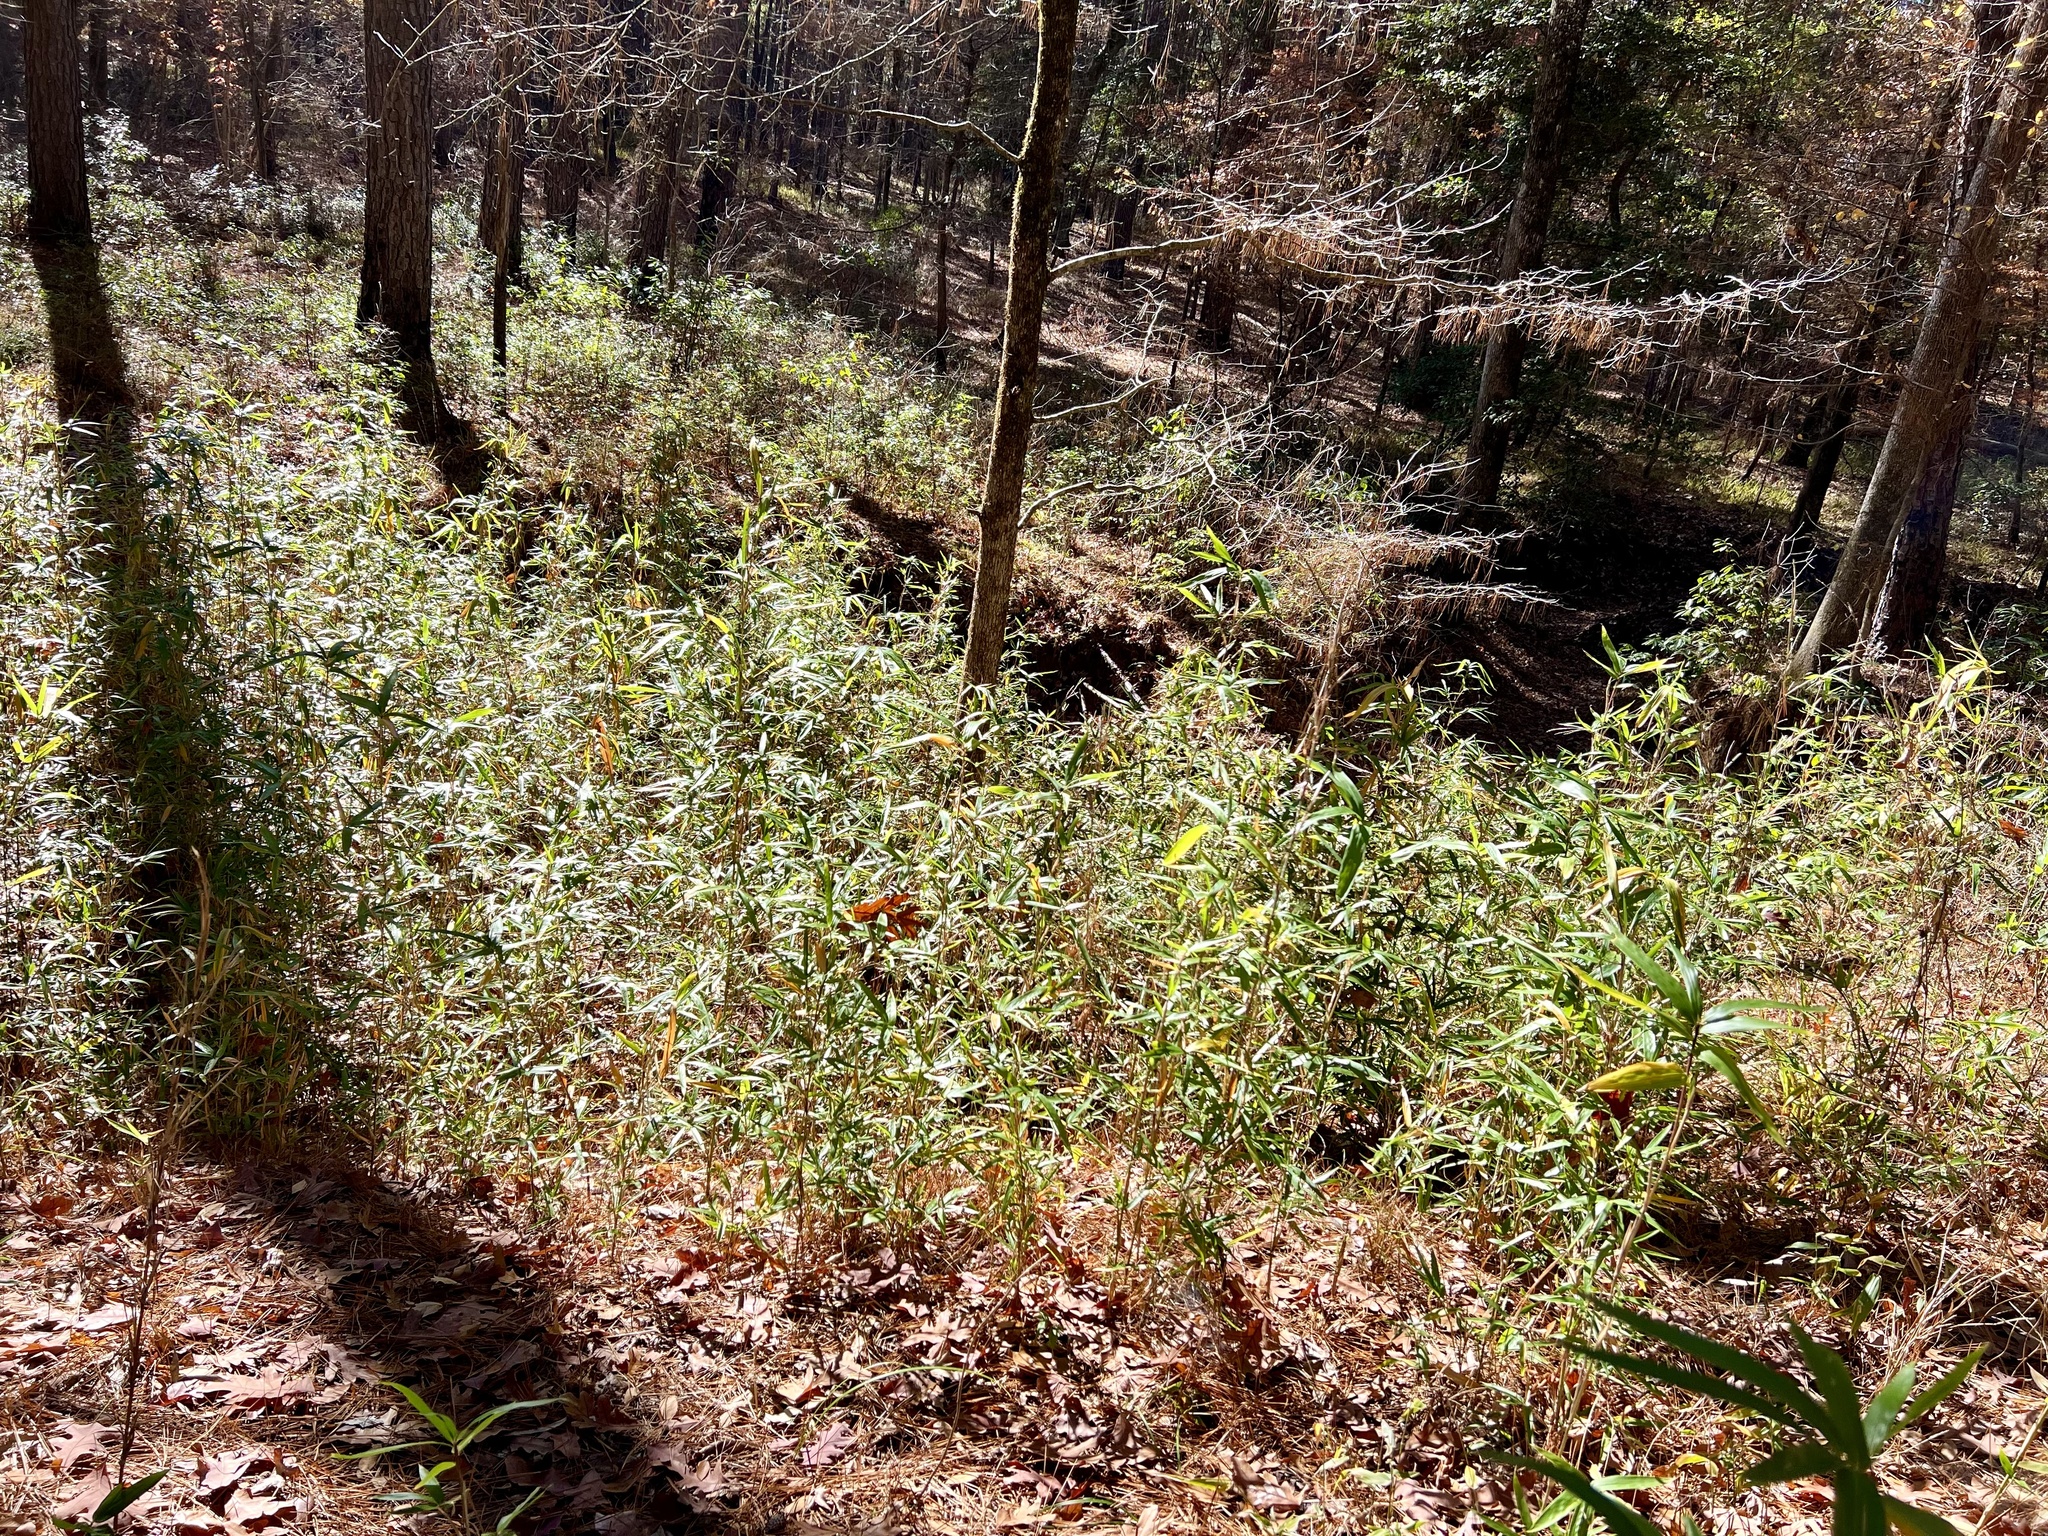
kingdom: Plantae
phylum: Tracheophyta
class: Liliopsida
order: Poales
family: Poaceae
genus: Arundinaria
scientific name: Arundinaria gigantea
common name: Giant cane
